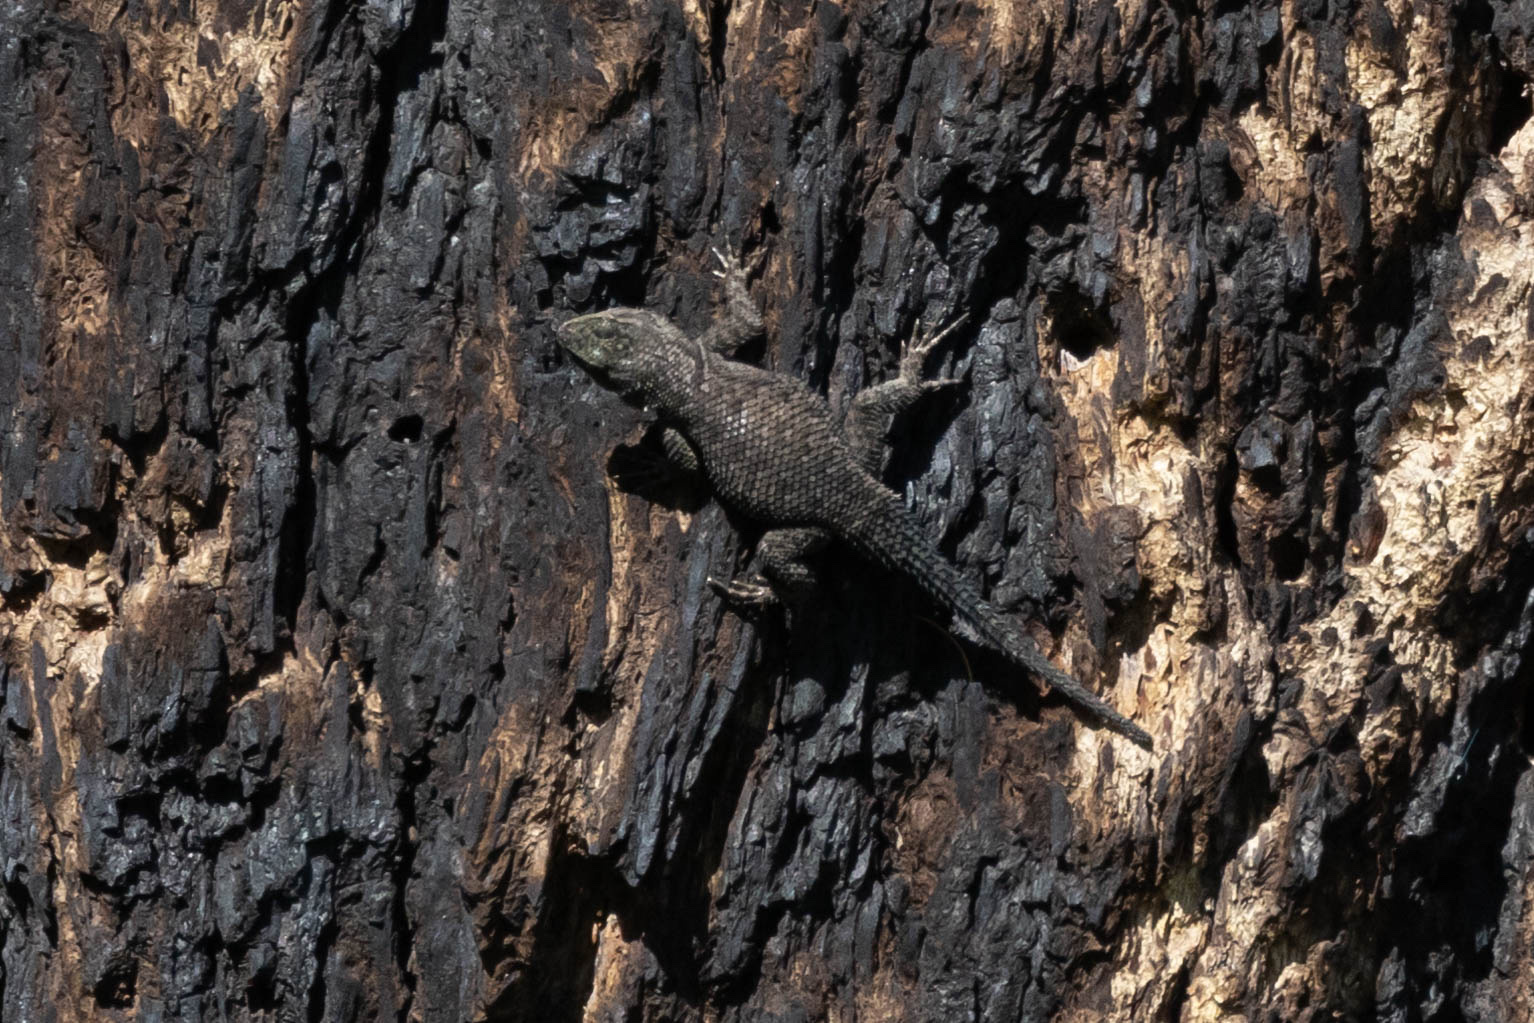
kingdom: Animalia
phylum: Chordata
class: Squamata
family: Phrynosomatidae
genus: Sceloporus
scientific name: Sceloporus jarrovii
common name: Yarrow's spiny lizard
